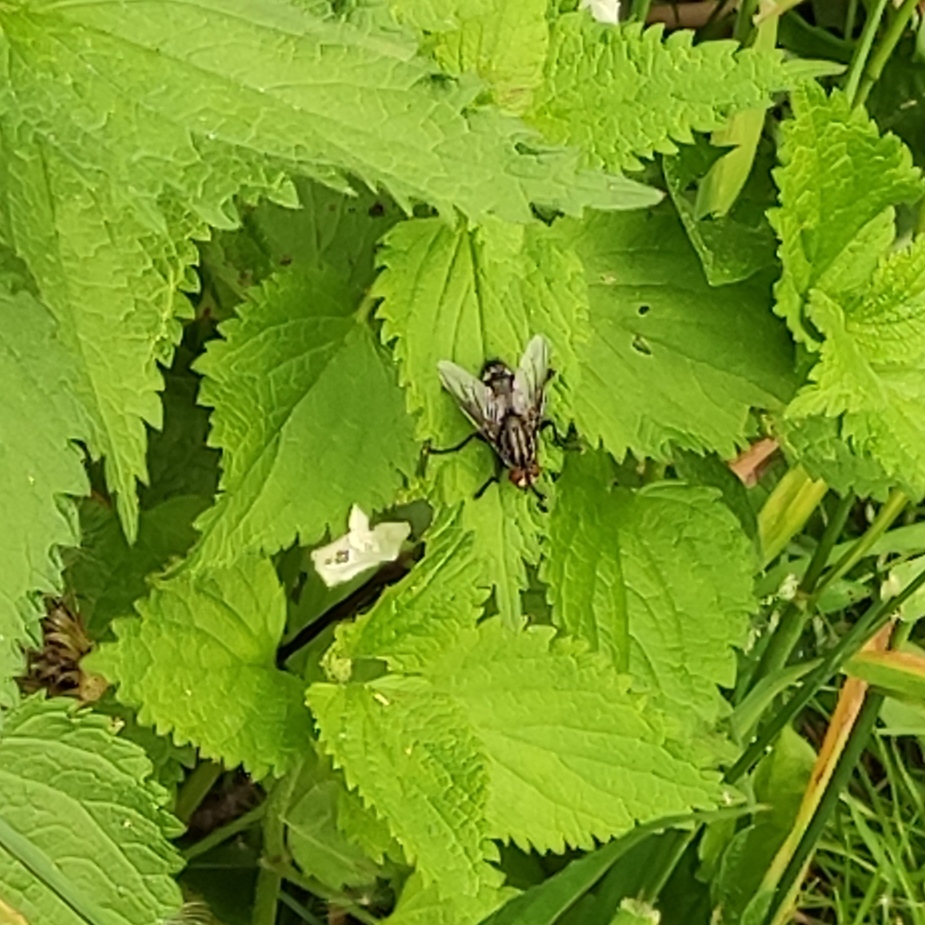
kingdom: Animalia
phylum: Arthropoda
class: Insecta
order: Diptera
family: Sarcophagidae
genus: Sarcophaga
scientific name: Sarcophaga
